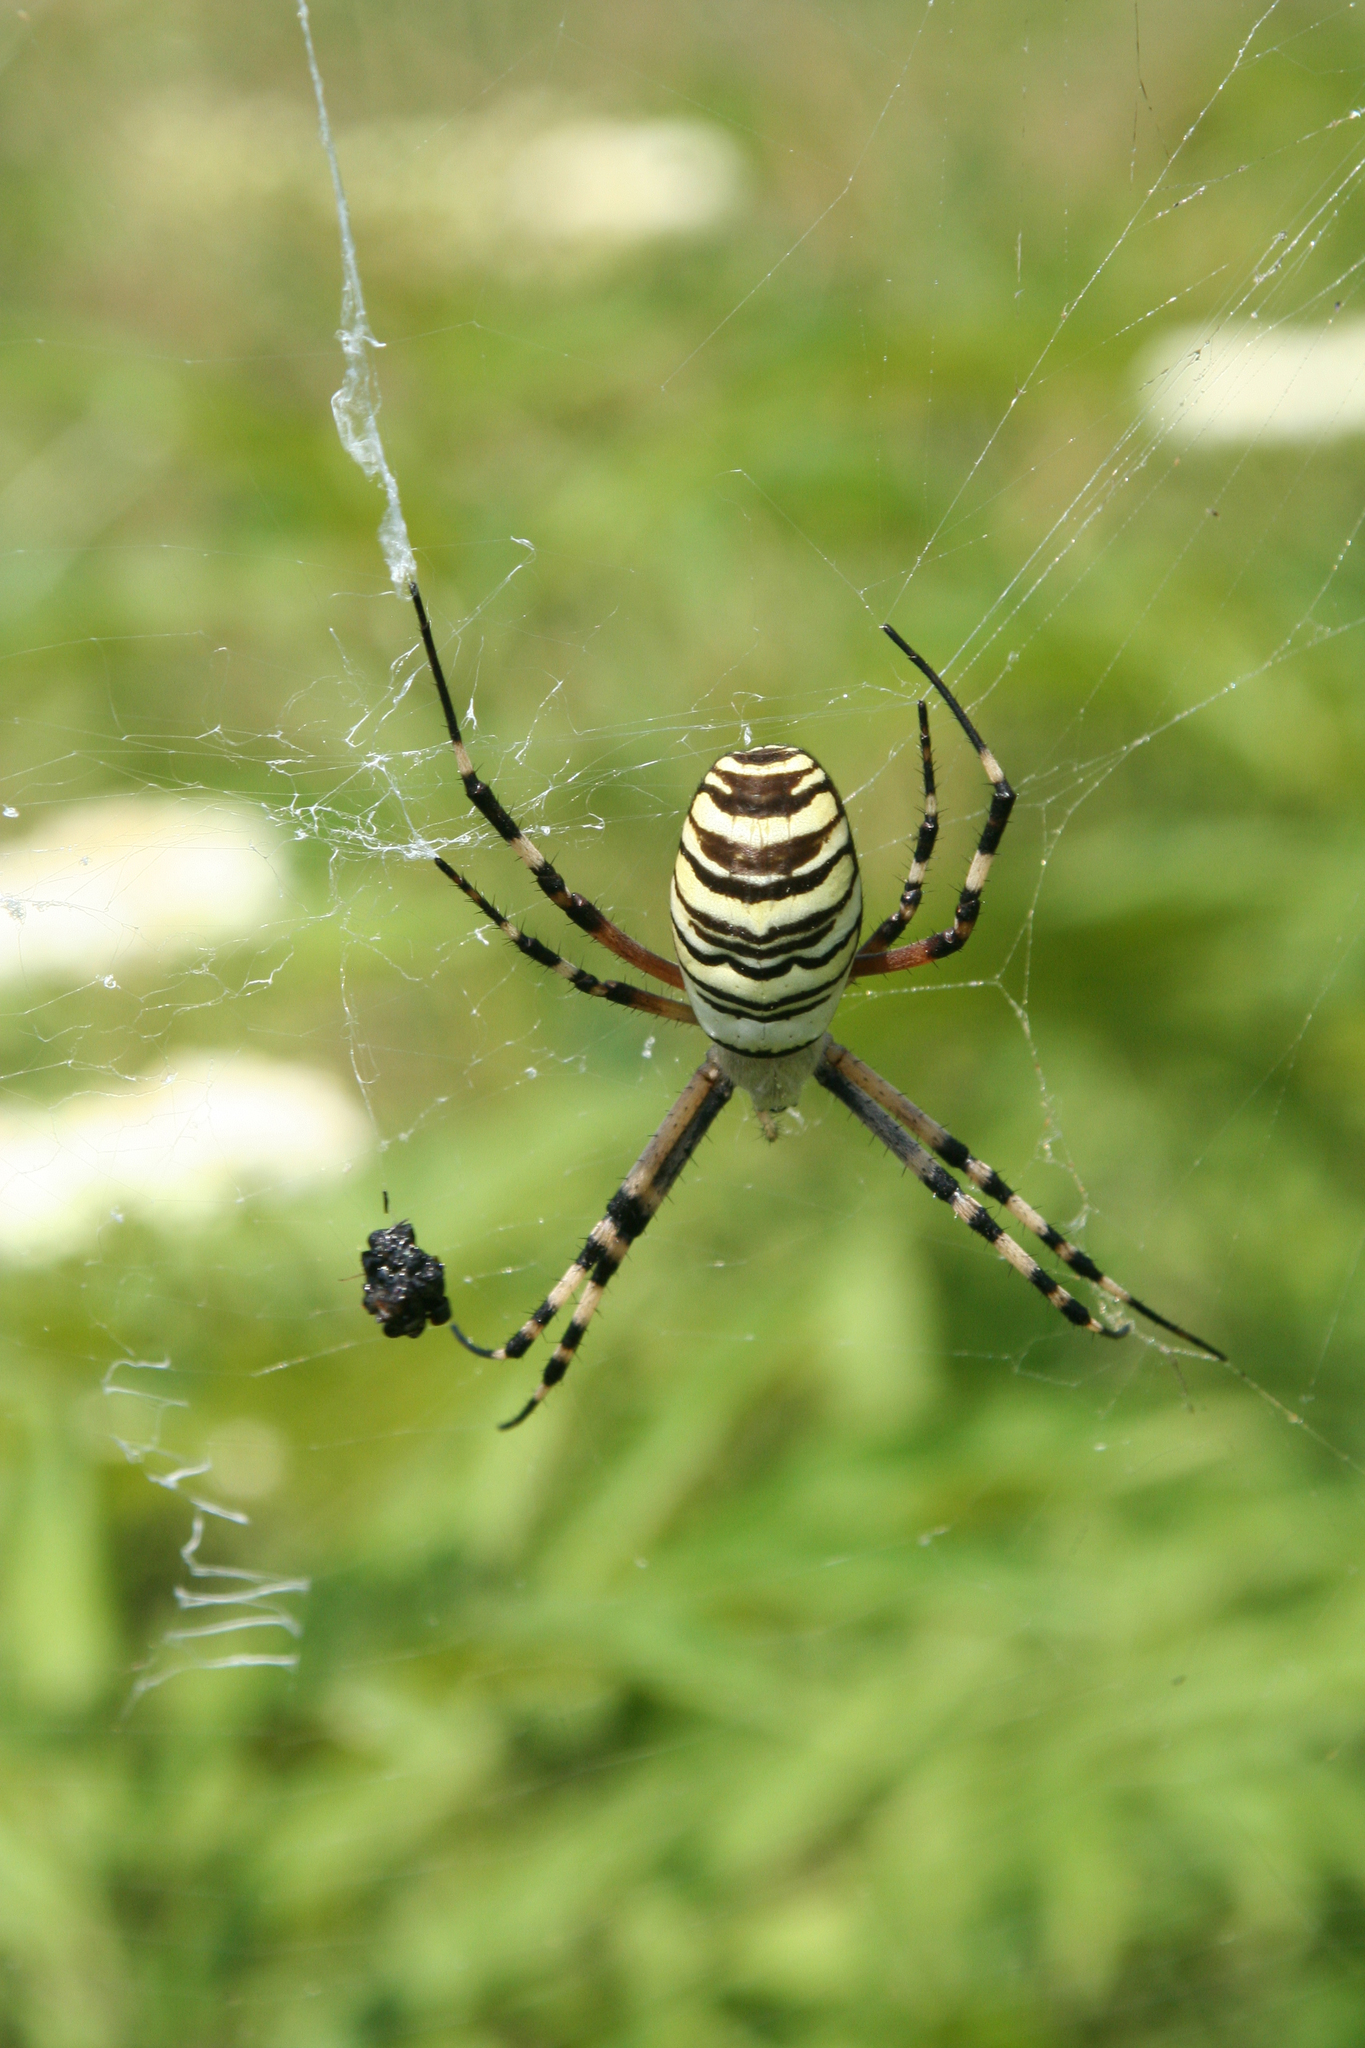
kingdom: Animalia
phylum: Arthropoda
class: Arachnida
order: Araneae
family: Araneidae
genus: Argiope
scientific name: Argiope bruennichi
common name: Wasp spider
